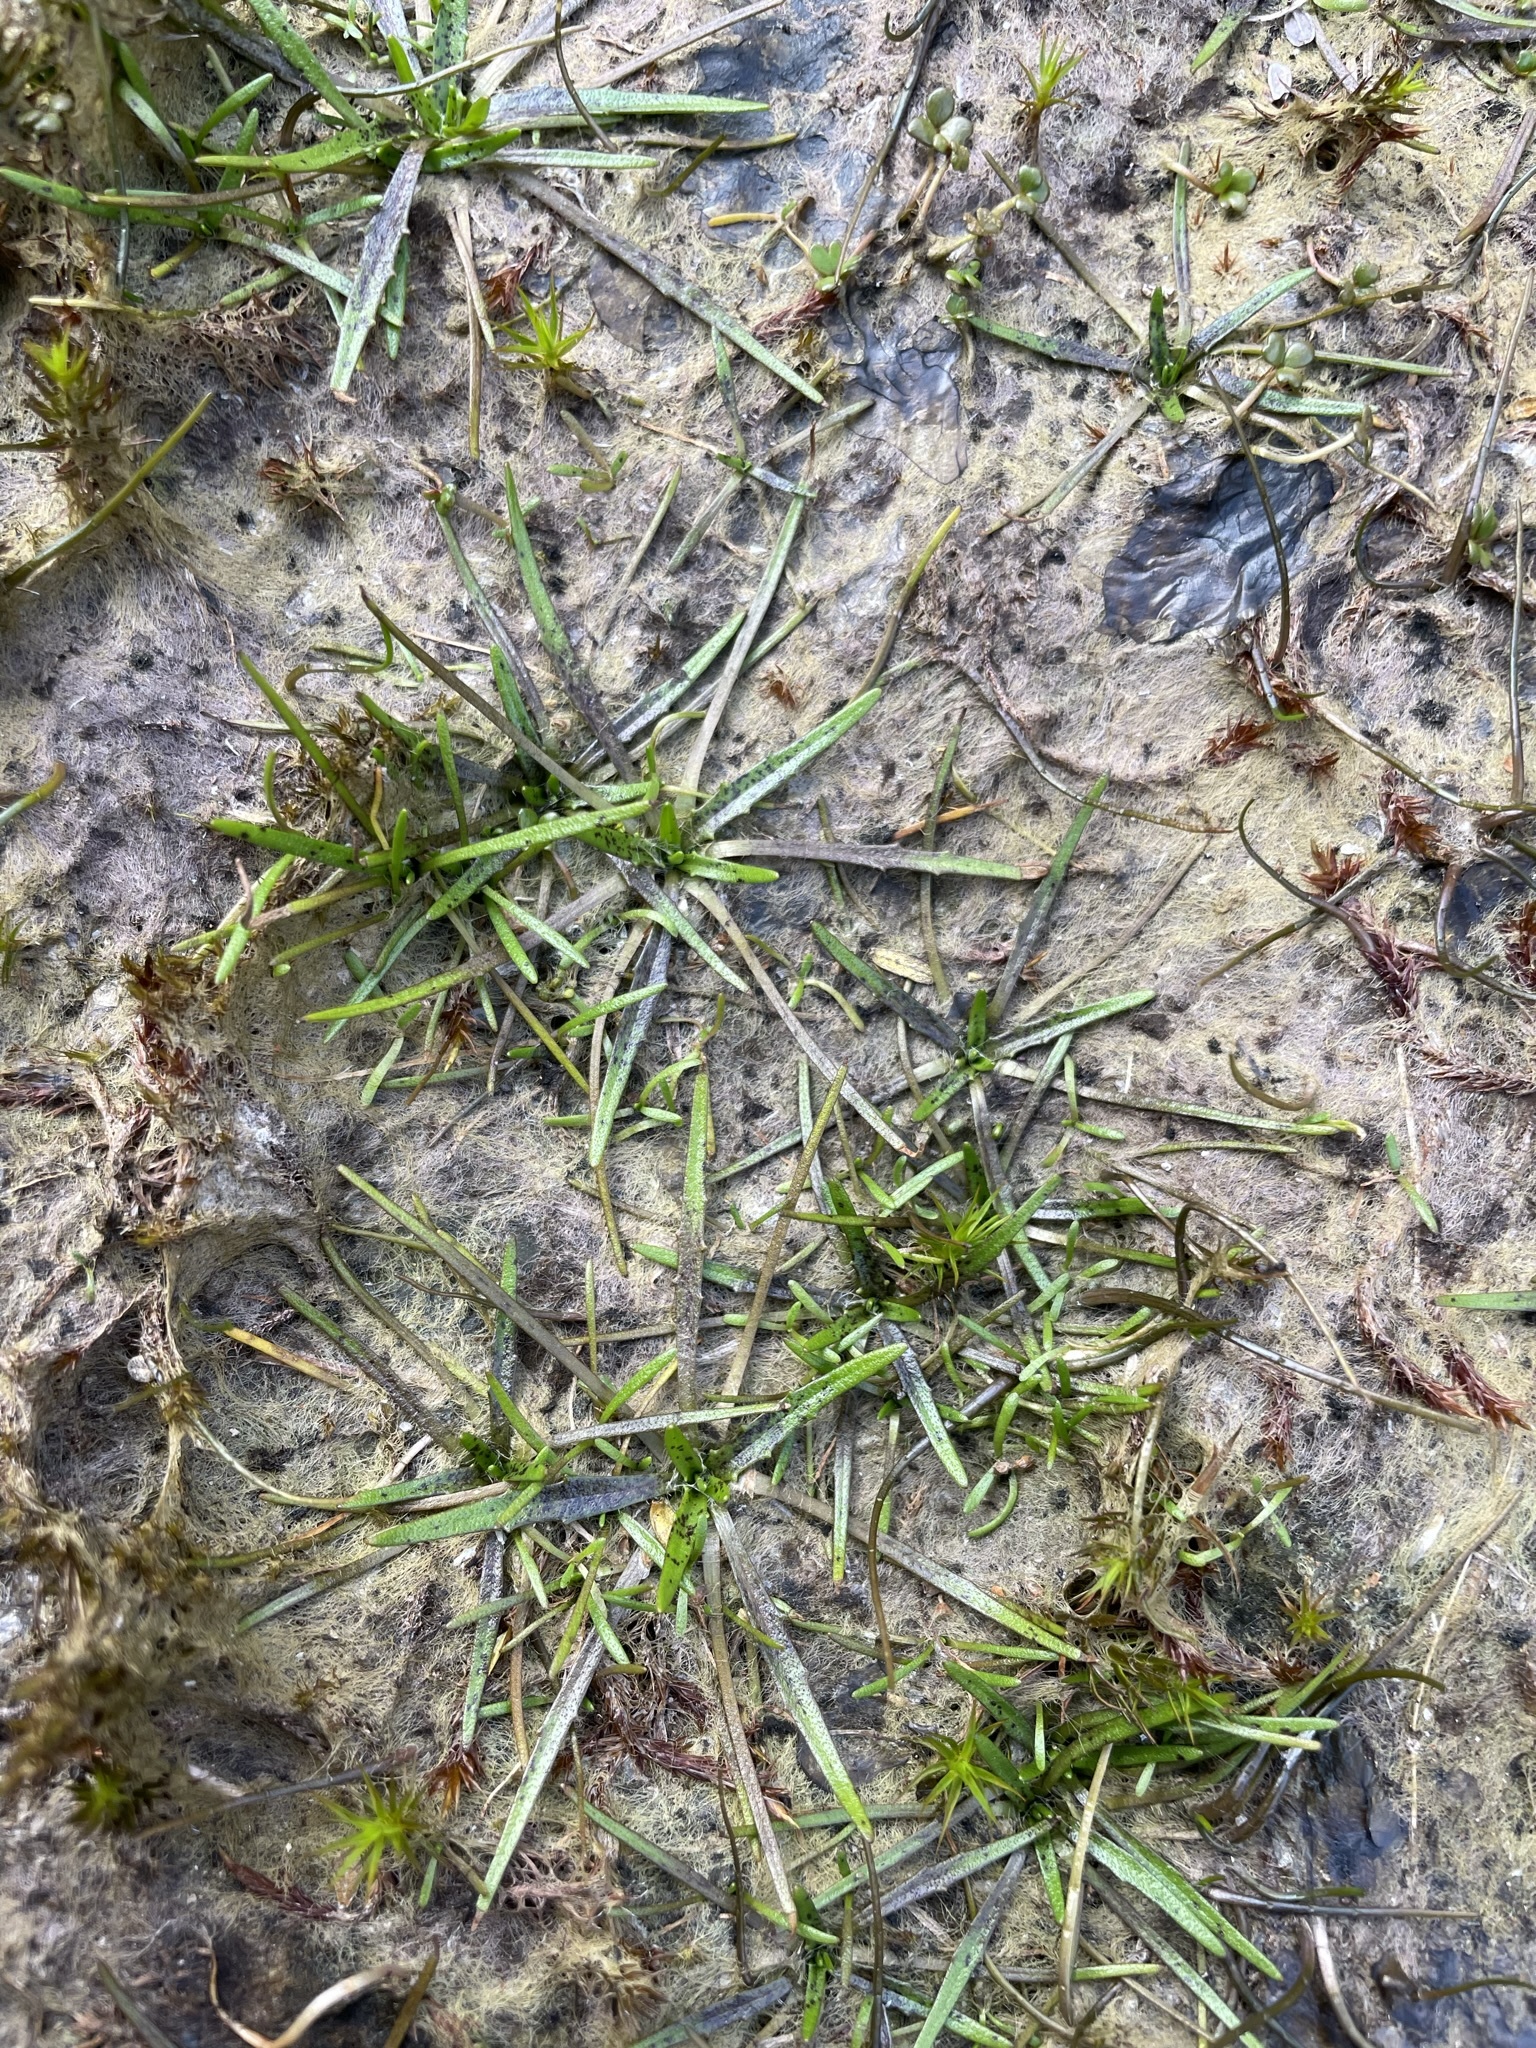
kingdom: Plantae
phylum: Tracheophyta
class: Magnoliopsida
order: Lamiales
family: Plantaginaceae
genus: Plantago
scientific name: Plantago triandra
